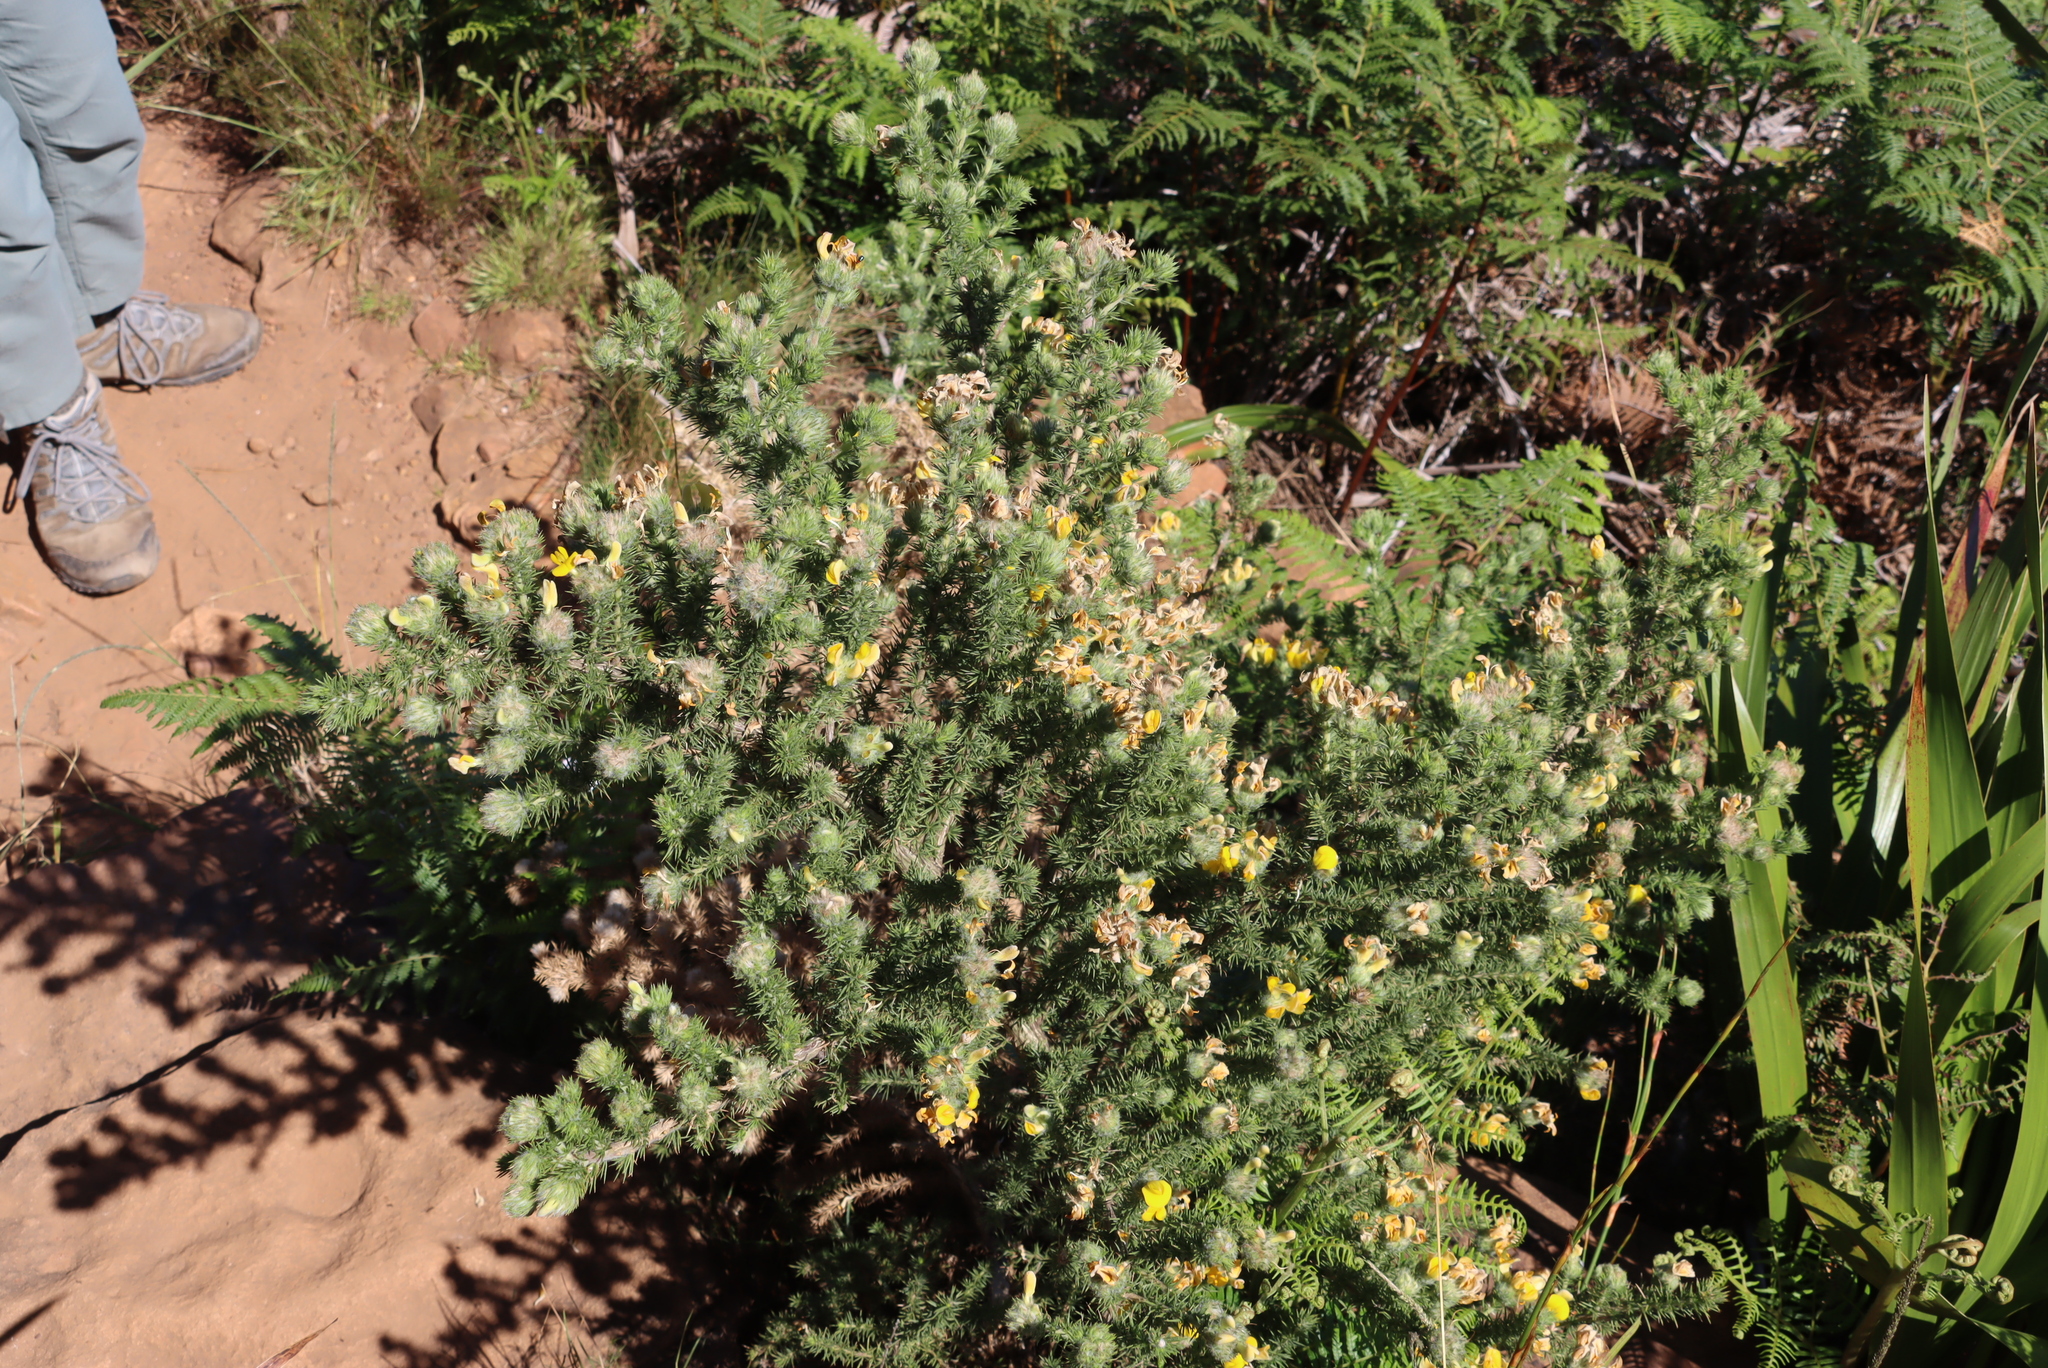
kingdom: Plantae
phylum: Tracheophyta
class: Magnoliopsida
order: Fabales
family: Fabaceae
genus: Aspalathus
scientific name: Aspalathus chenopoda
